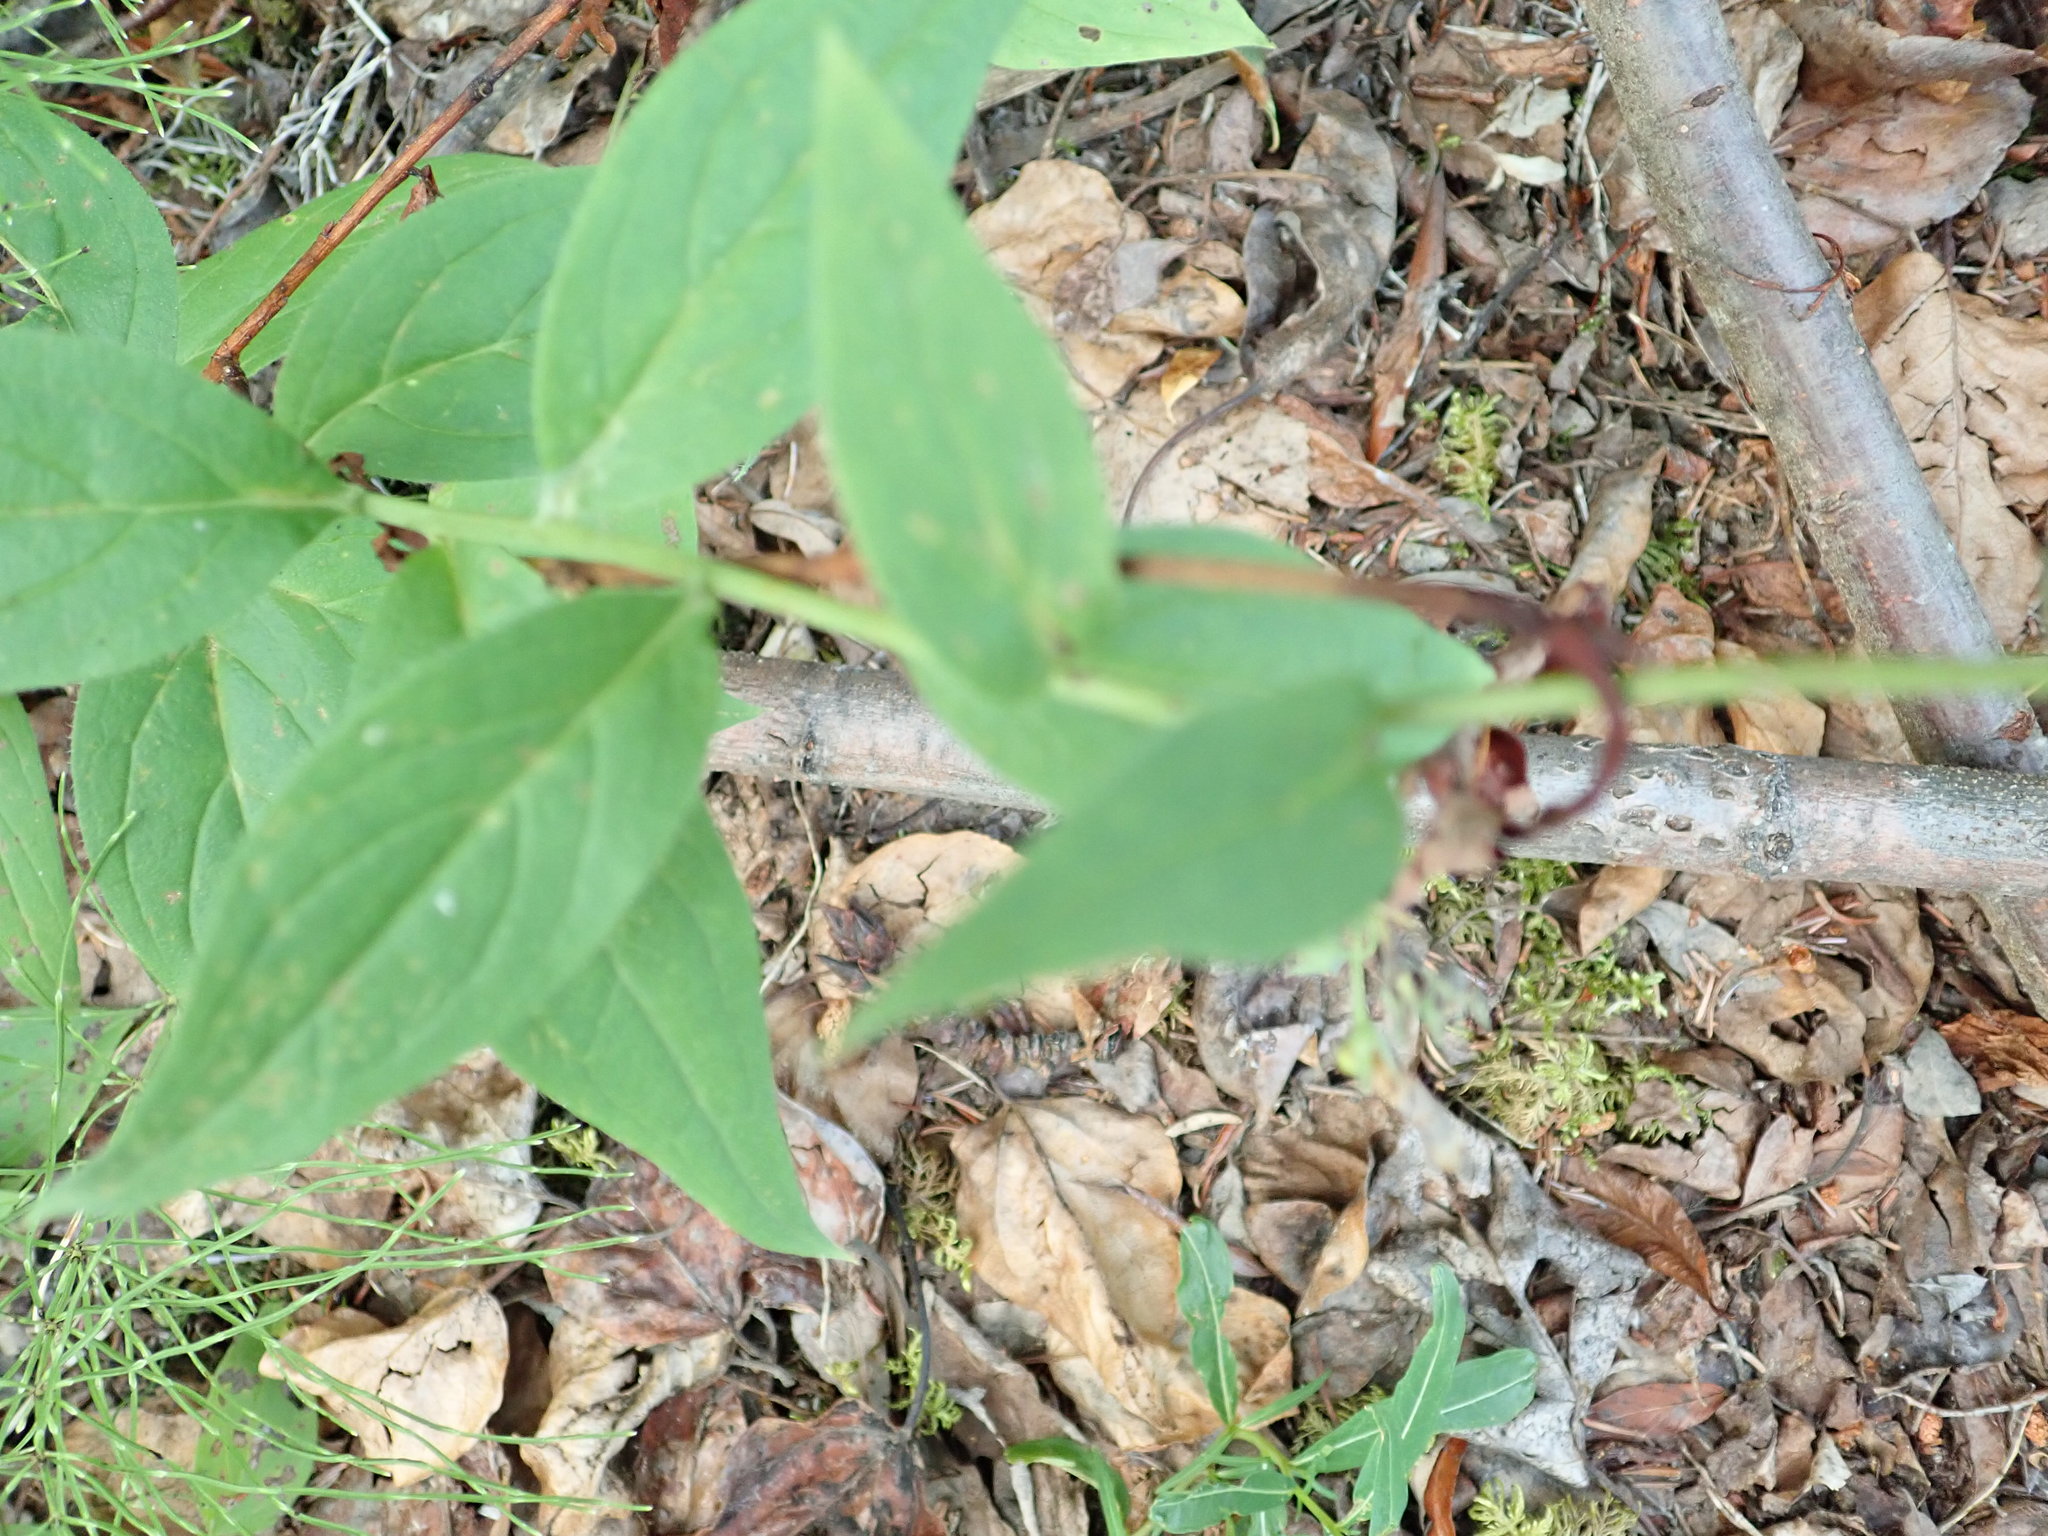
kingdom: Plantae
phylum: Tracheophyta
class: Magnoliopsida
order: Boraginales
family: Boraginaceae
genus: Mertensia
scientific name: Mertensia paniculata
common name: Panicled bluebells
